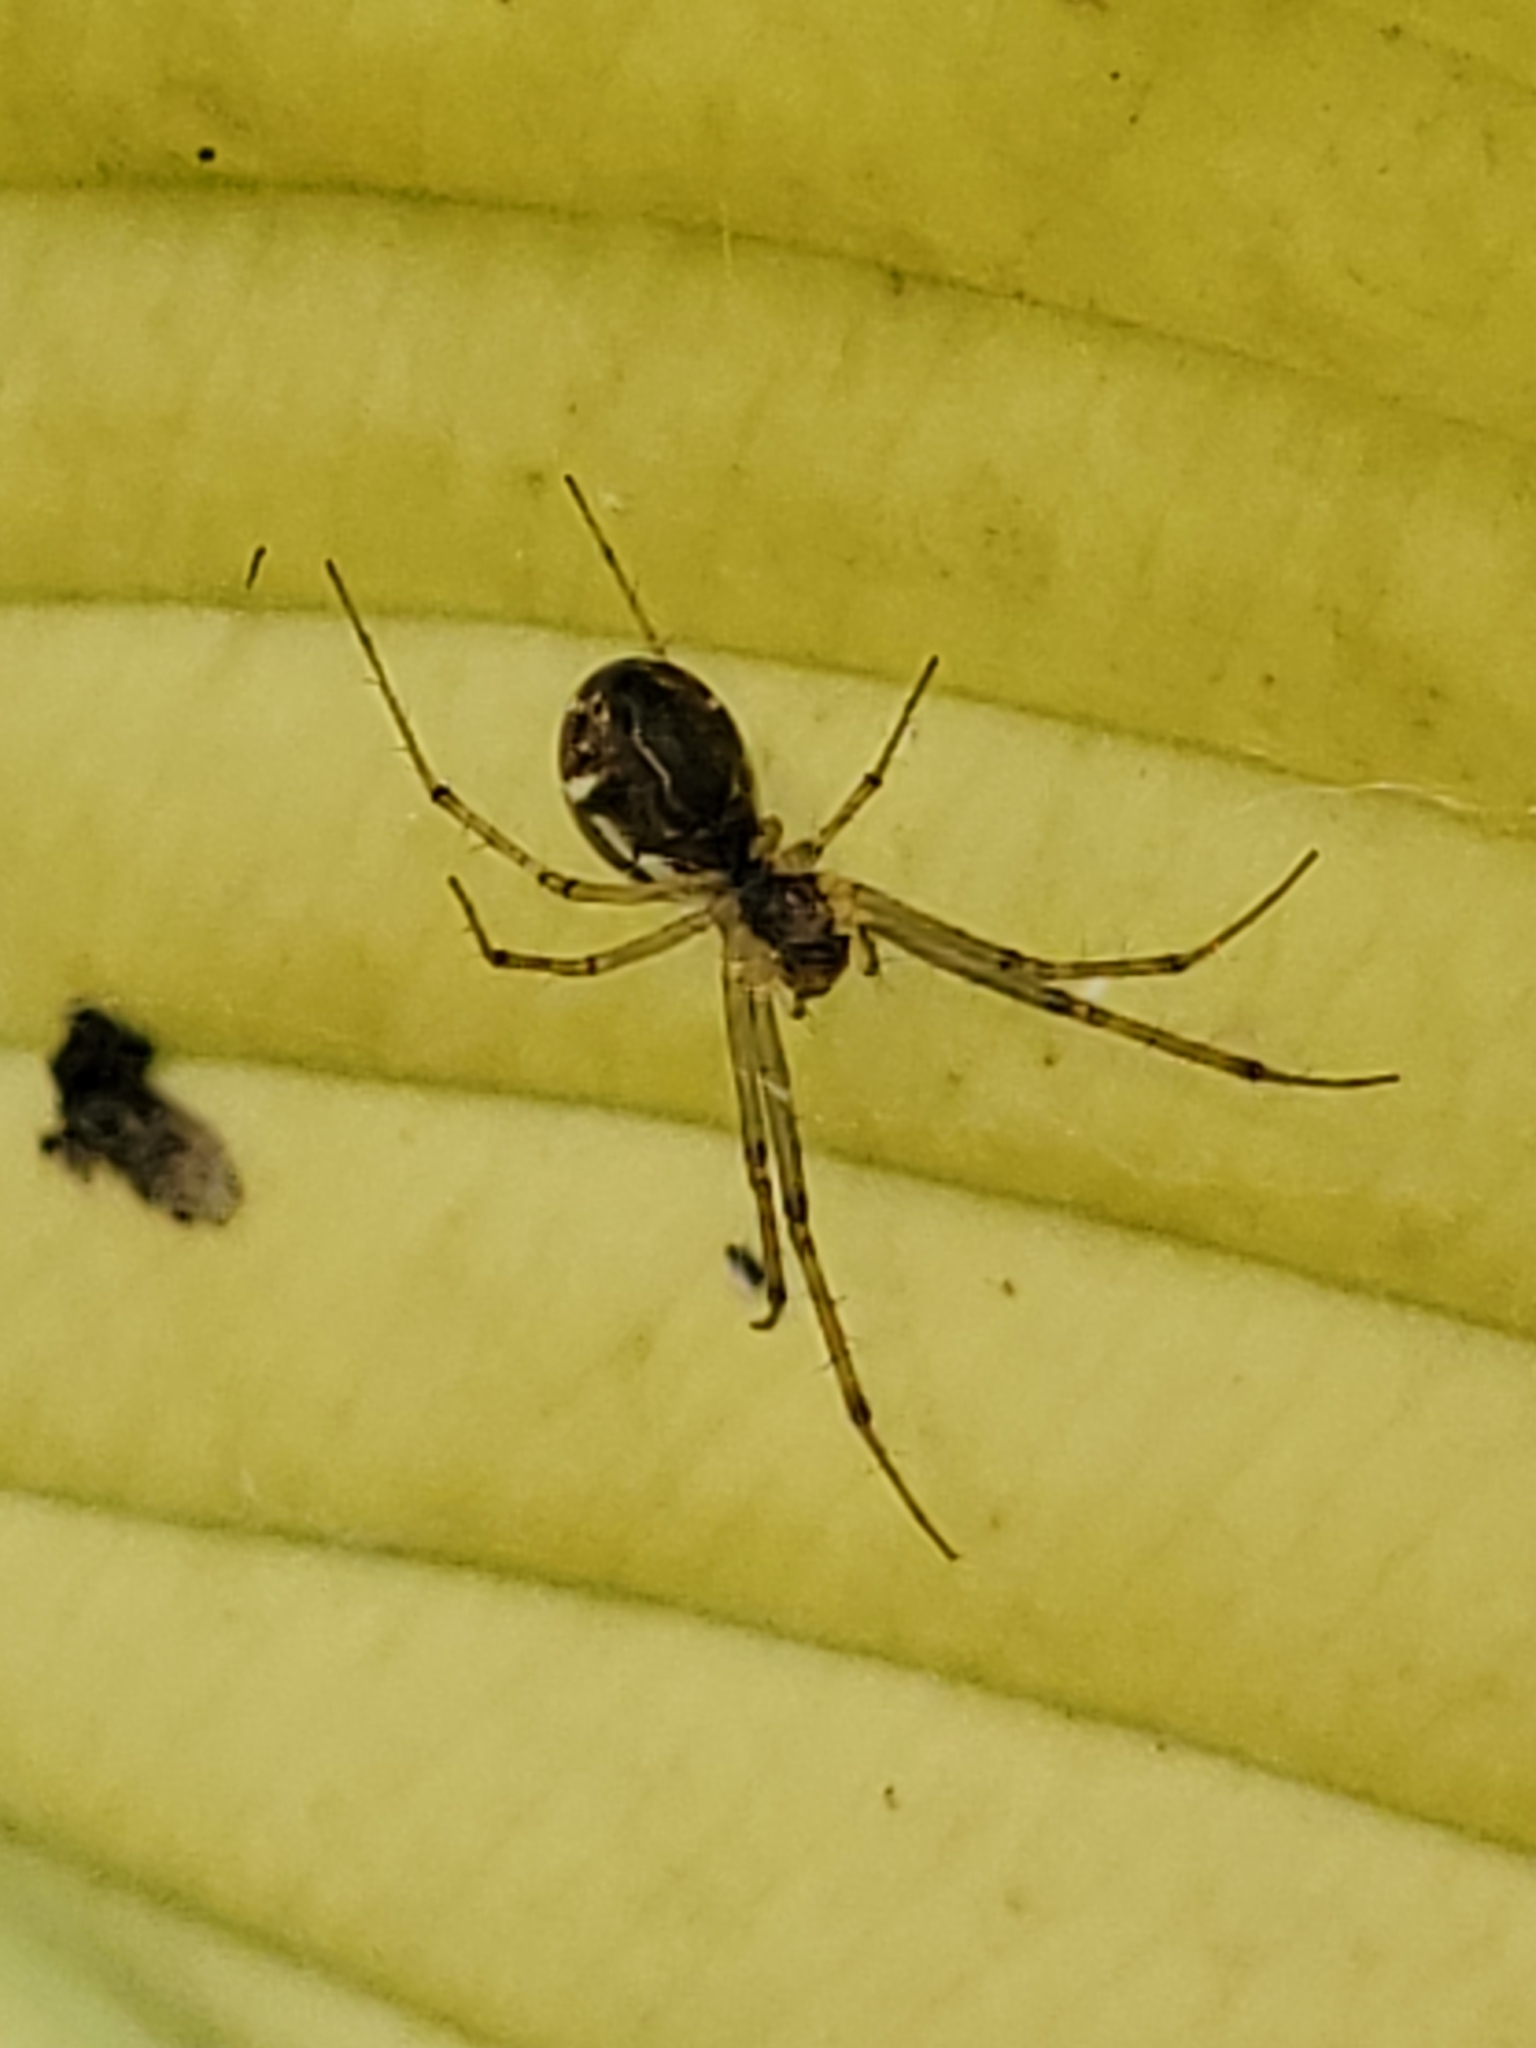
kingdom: Animalia
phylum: Arthropoda
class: Arachnida
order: Araneae
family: Linyphiidae
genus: Linyphia
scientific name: Linyphia triangularis
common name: Money spider
